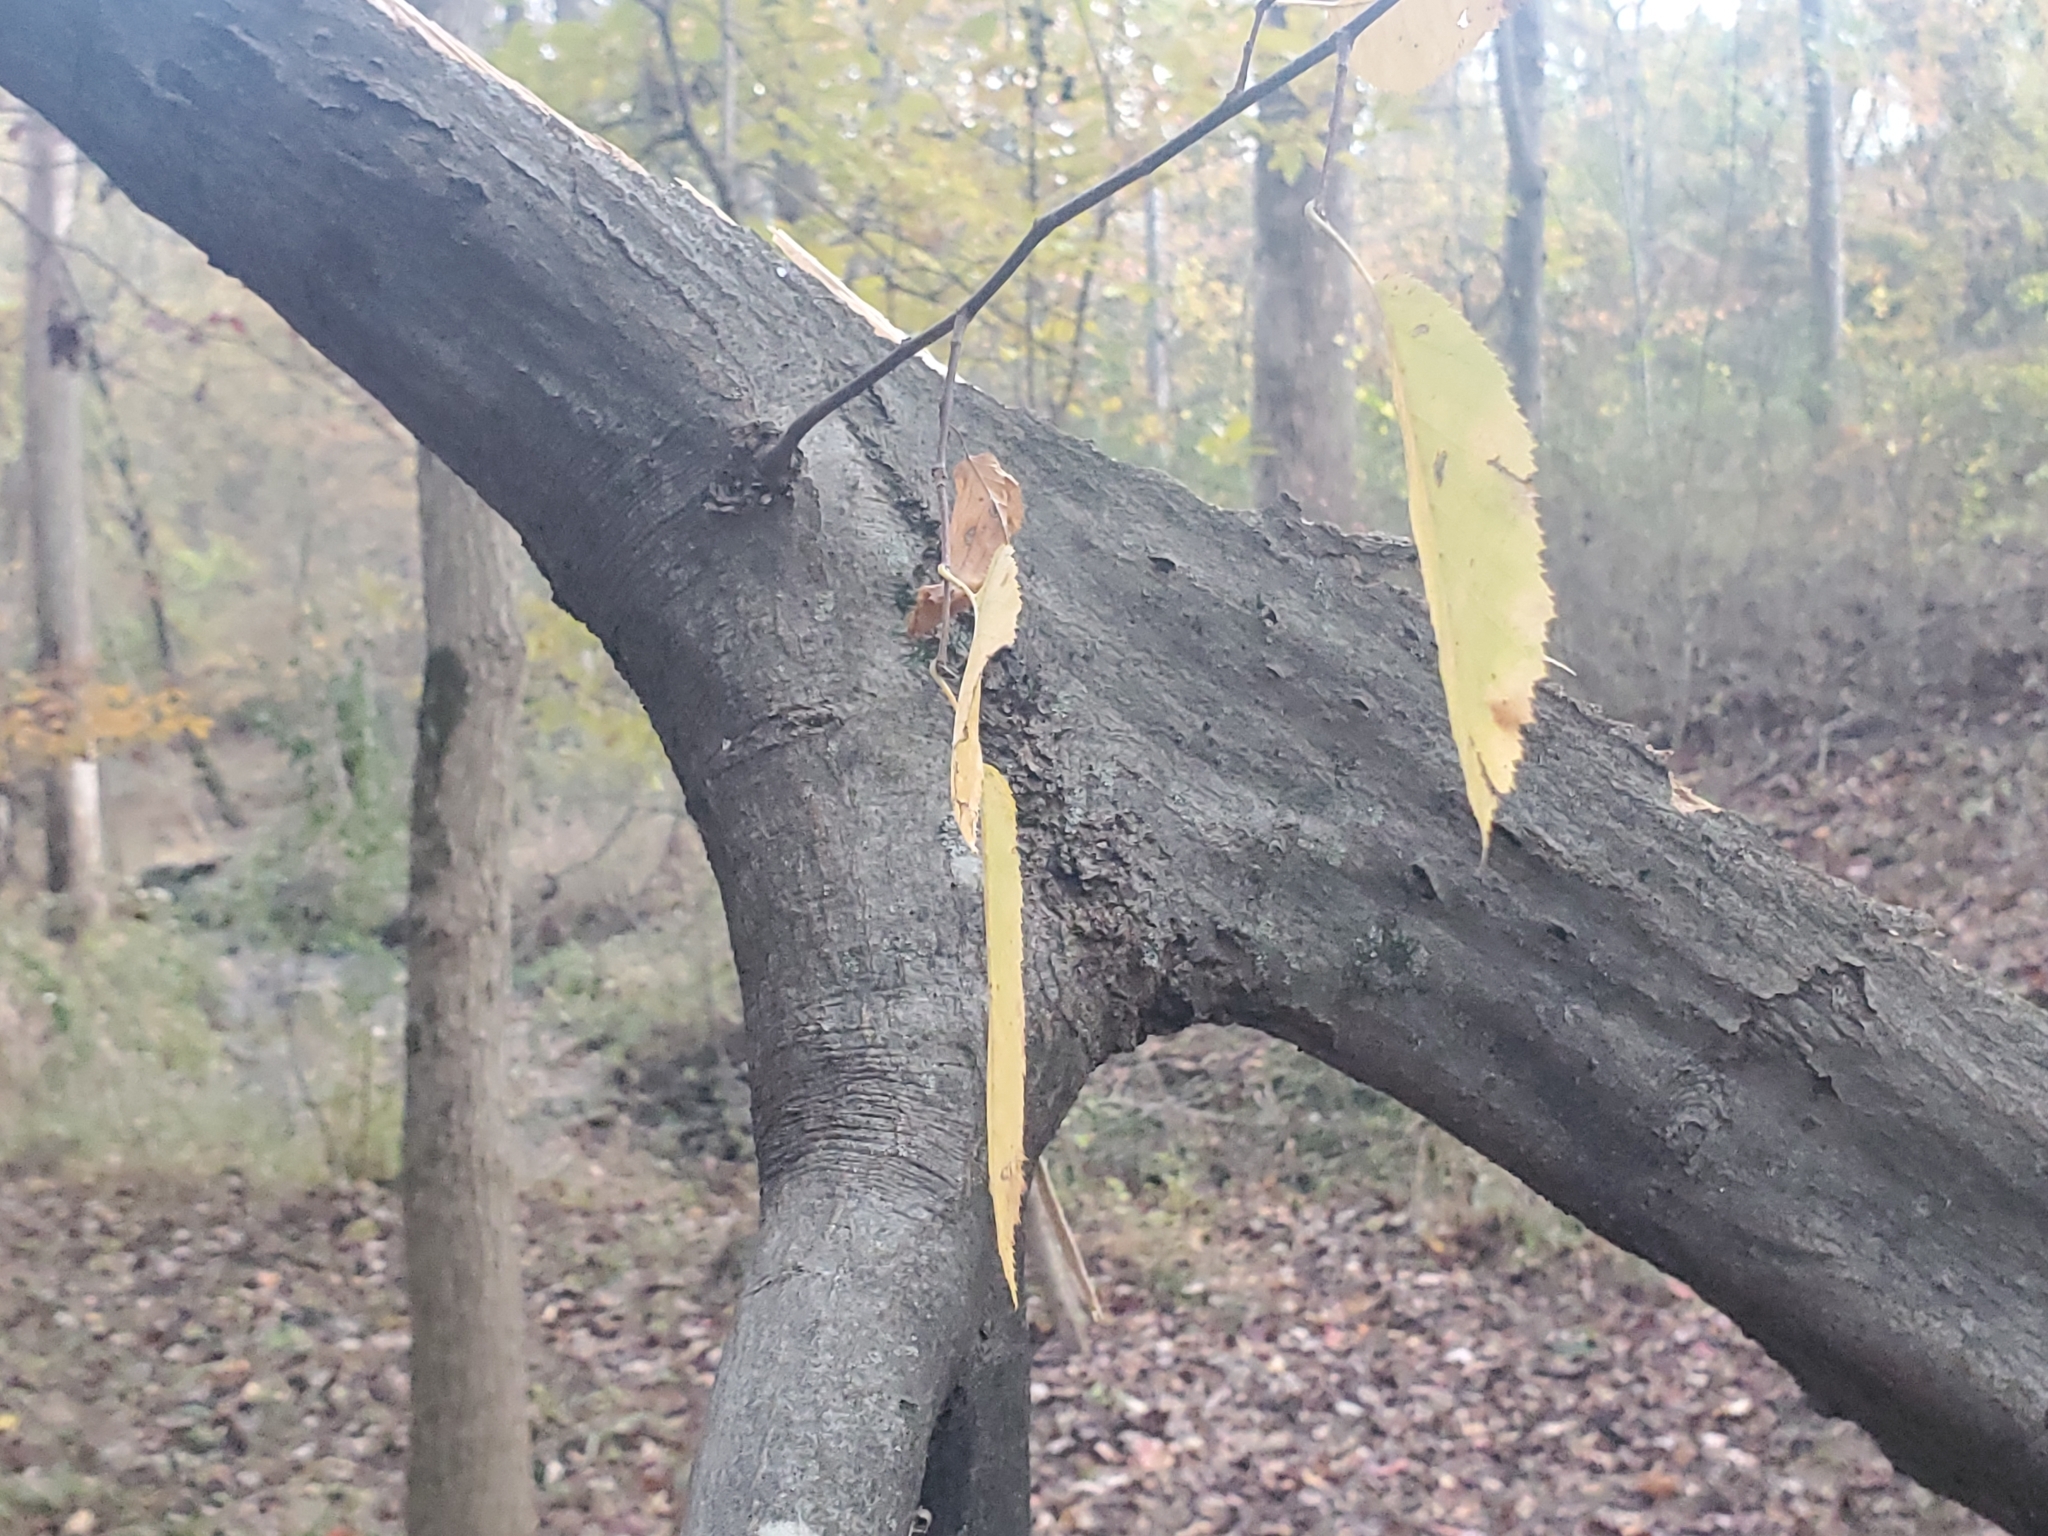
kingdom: Plantae
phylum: Tracheophyta
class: Magnoliopsida
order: Fagales
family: Betulaceae
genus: Carpinus
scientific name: Carpinus caroliniana
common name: American hornbeam
